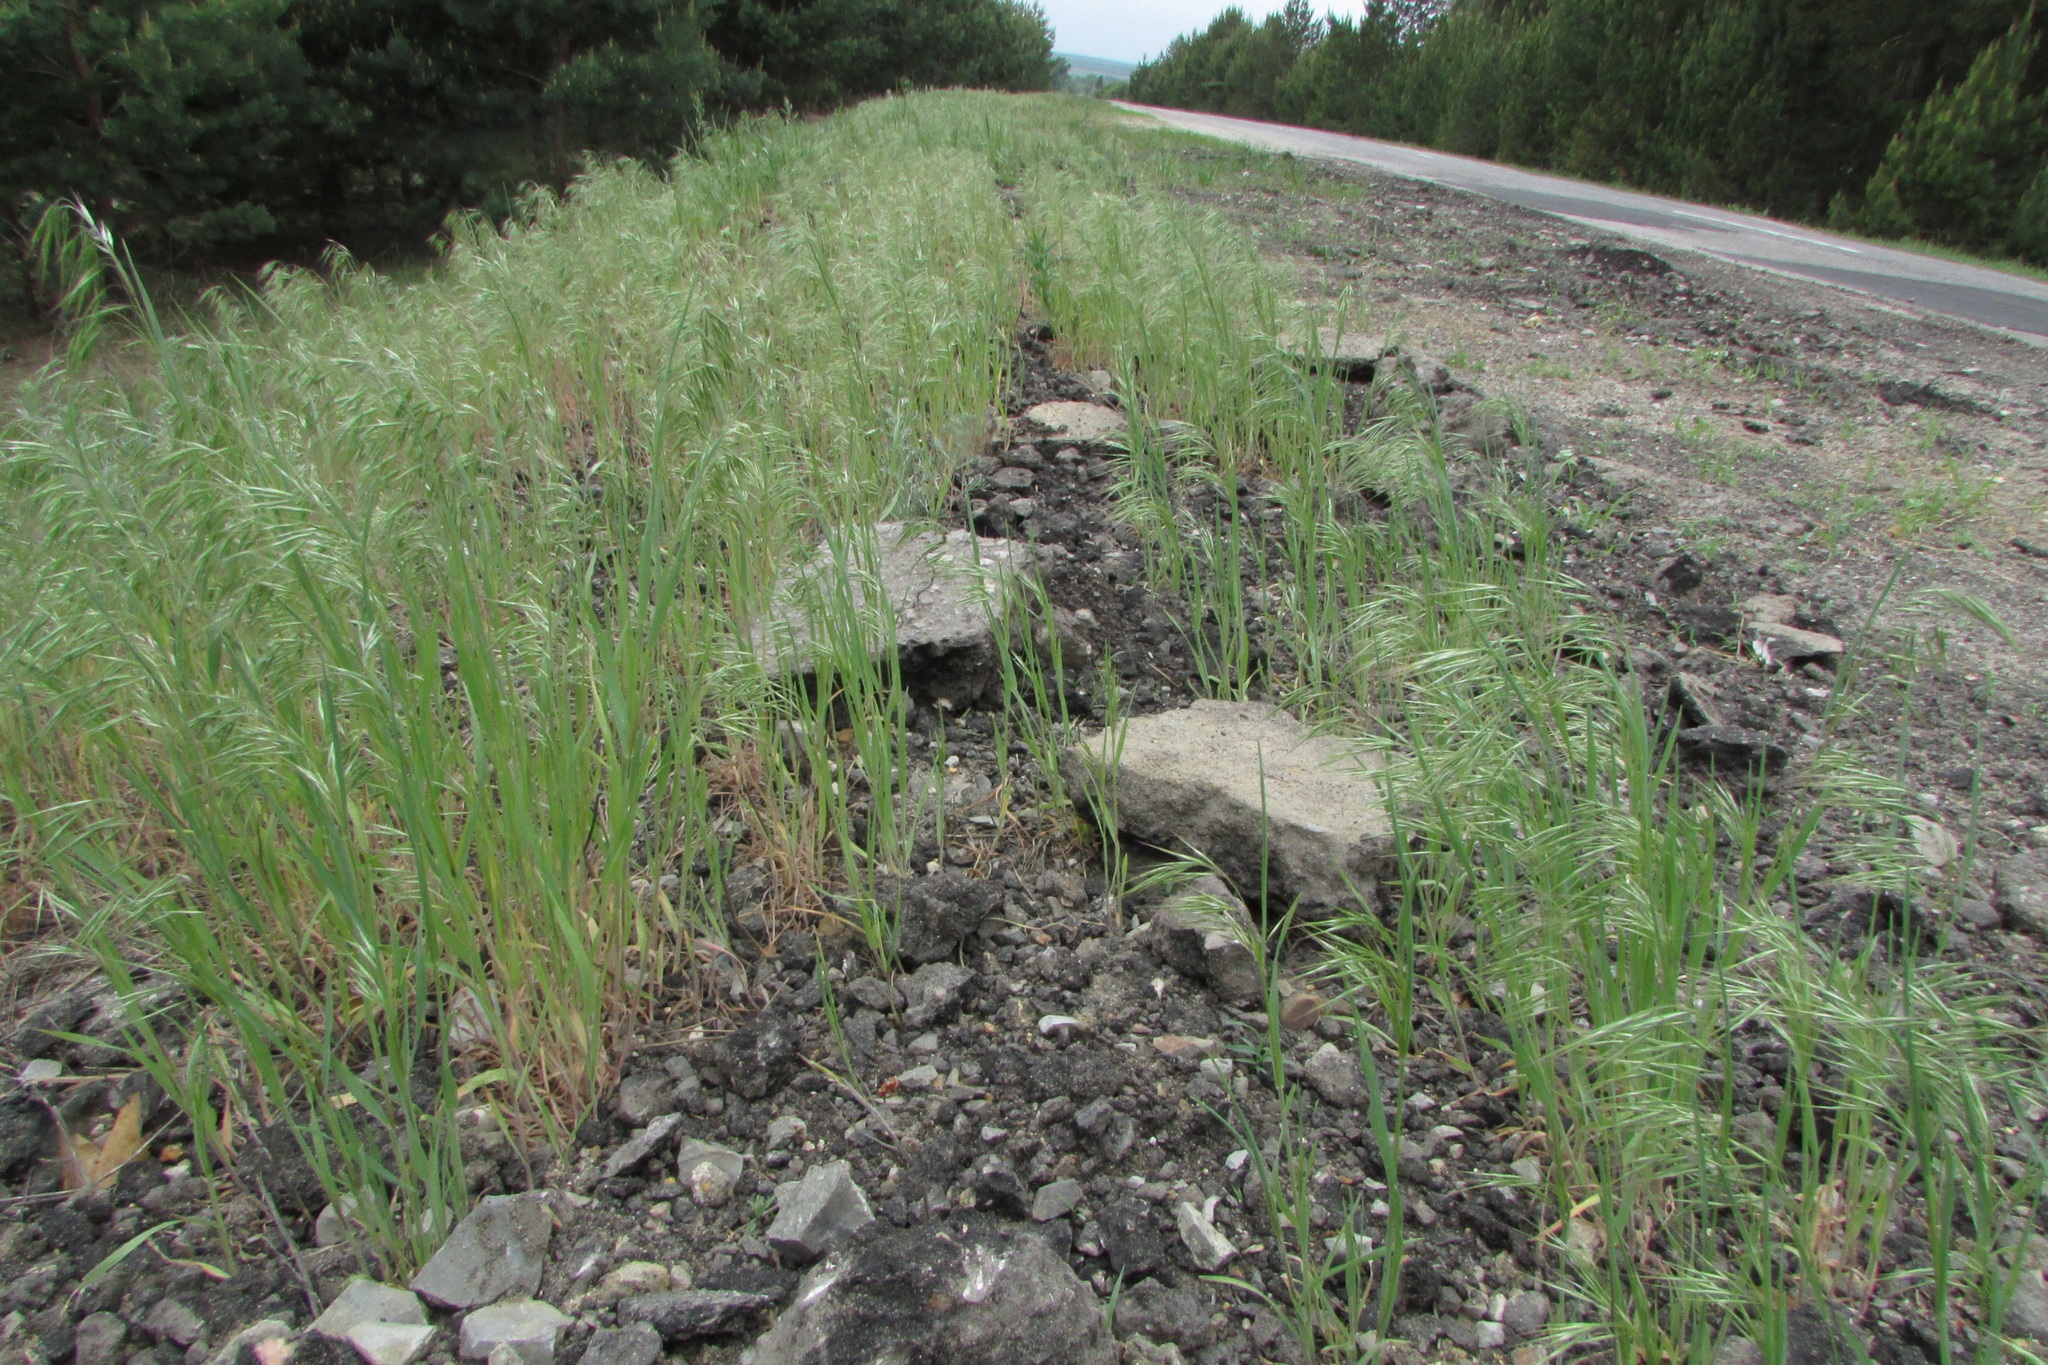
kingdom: Plantae
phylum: Tracheophyta
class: Liliopsida
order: Poales
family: Poaceae
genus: Bromus
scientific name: Bromus tectorum
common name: Cheatgrass
